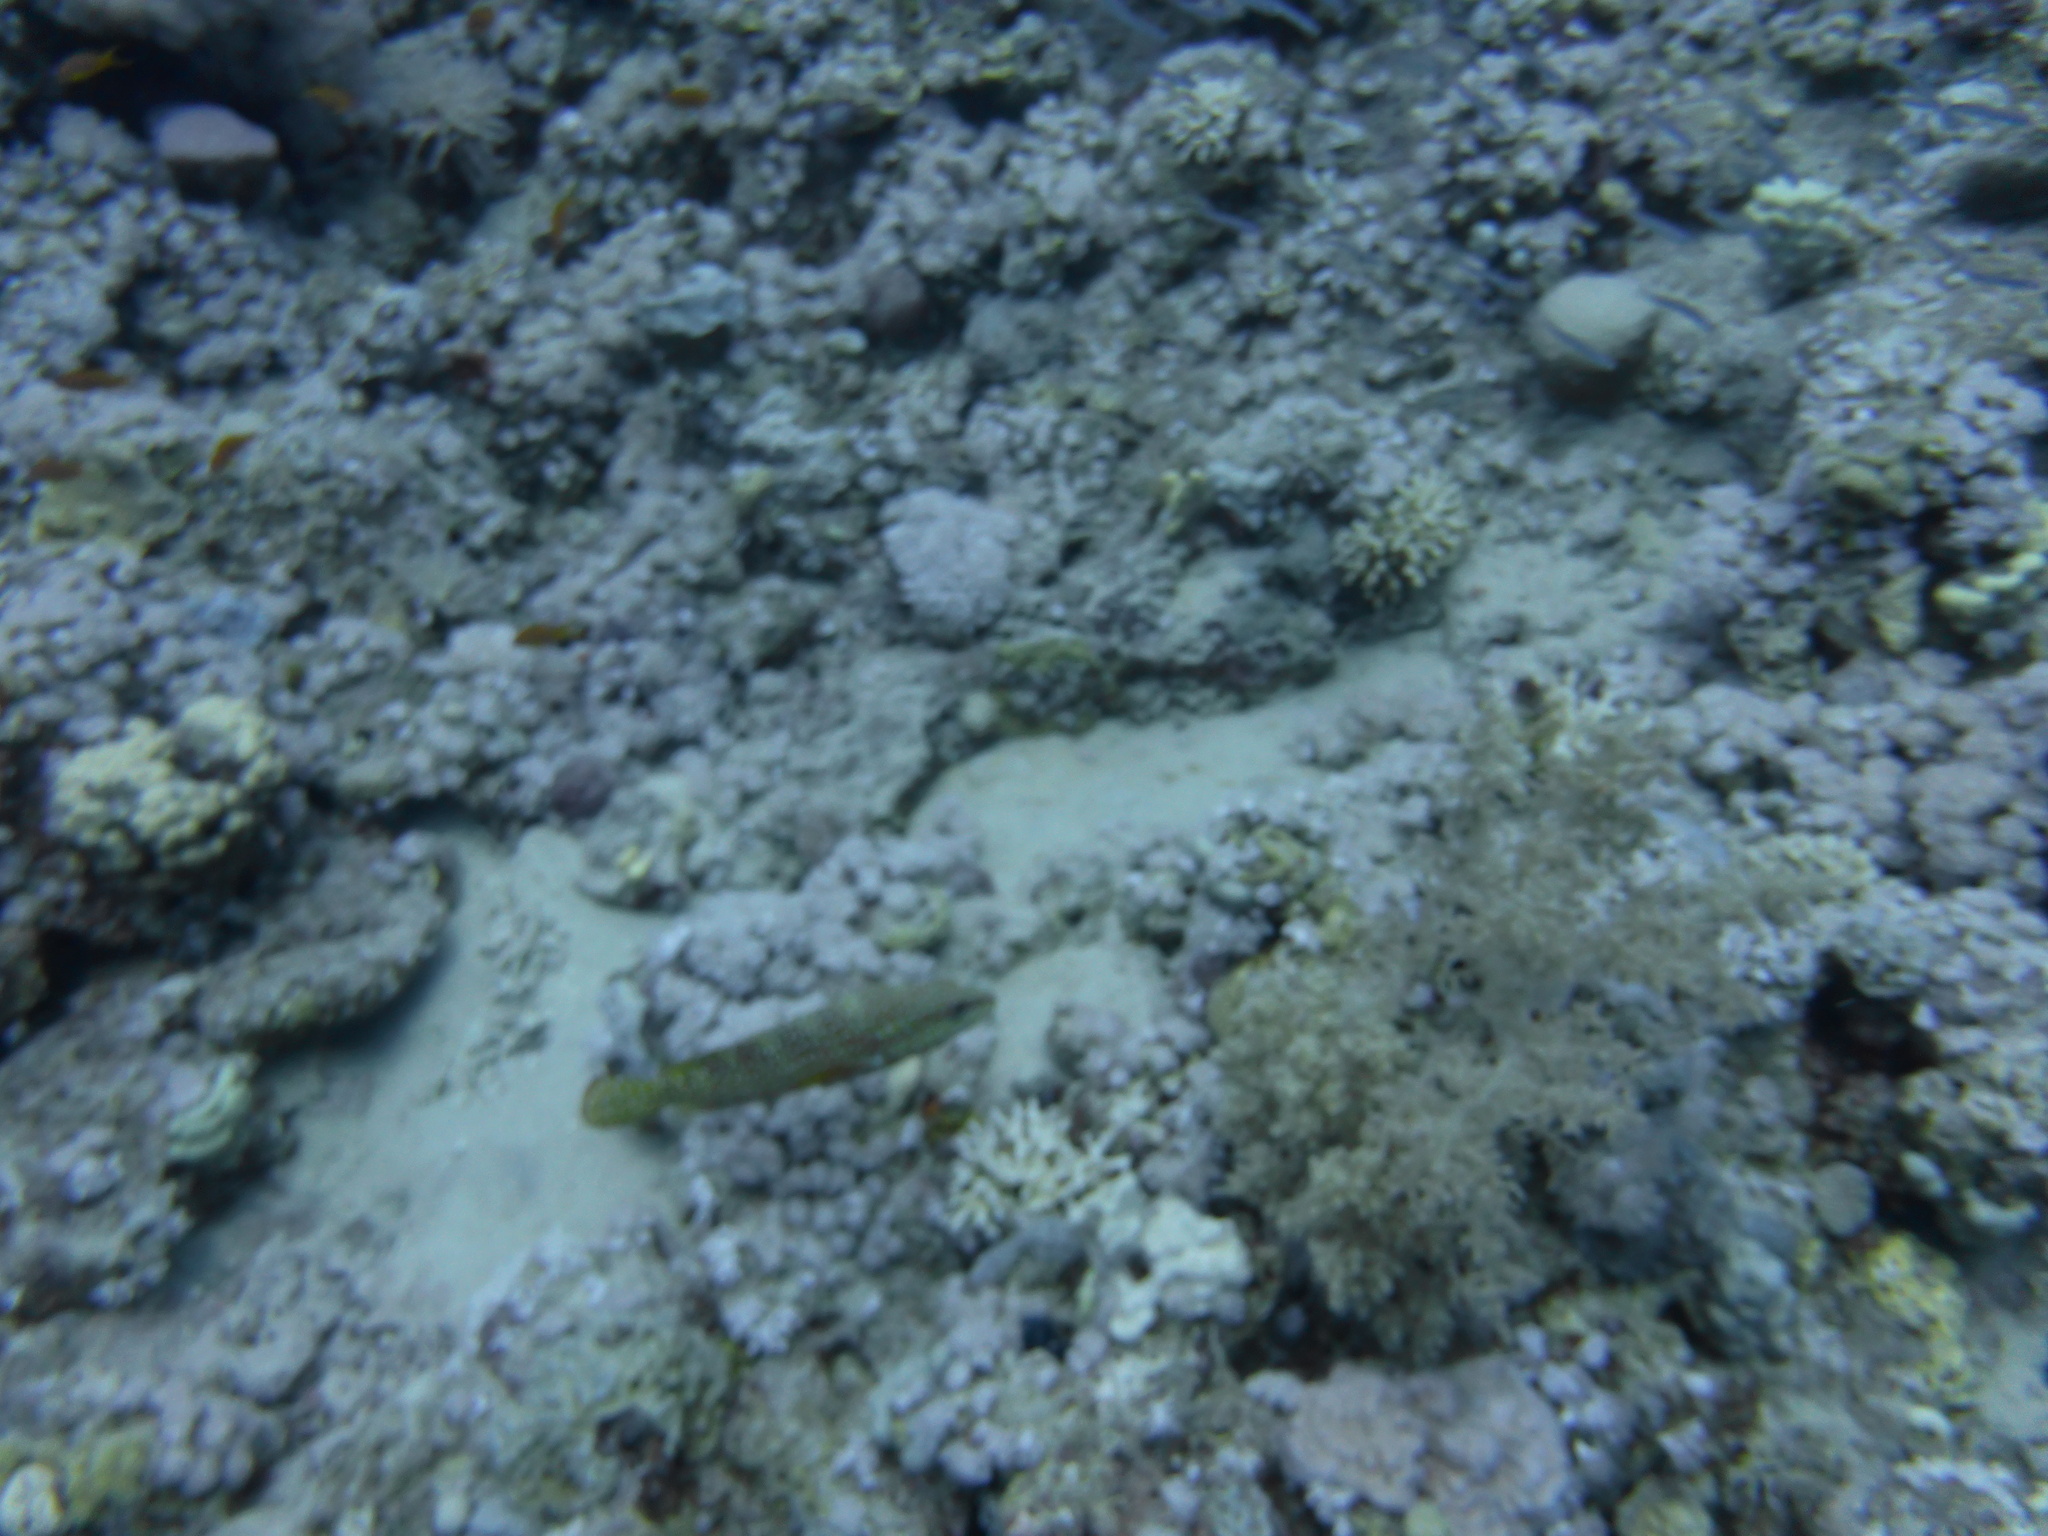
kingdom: Animalia
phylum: Chordata
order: Perciformes
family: Serranidae
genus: Cephalopholis
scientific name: Cephalopholis miniata
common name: Coral hind
